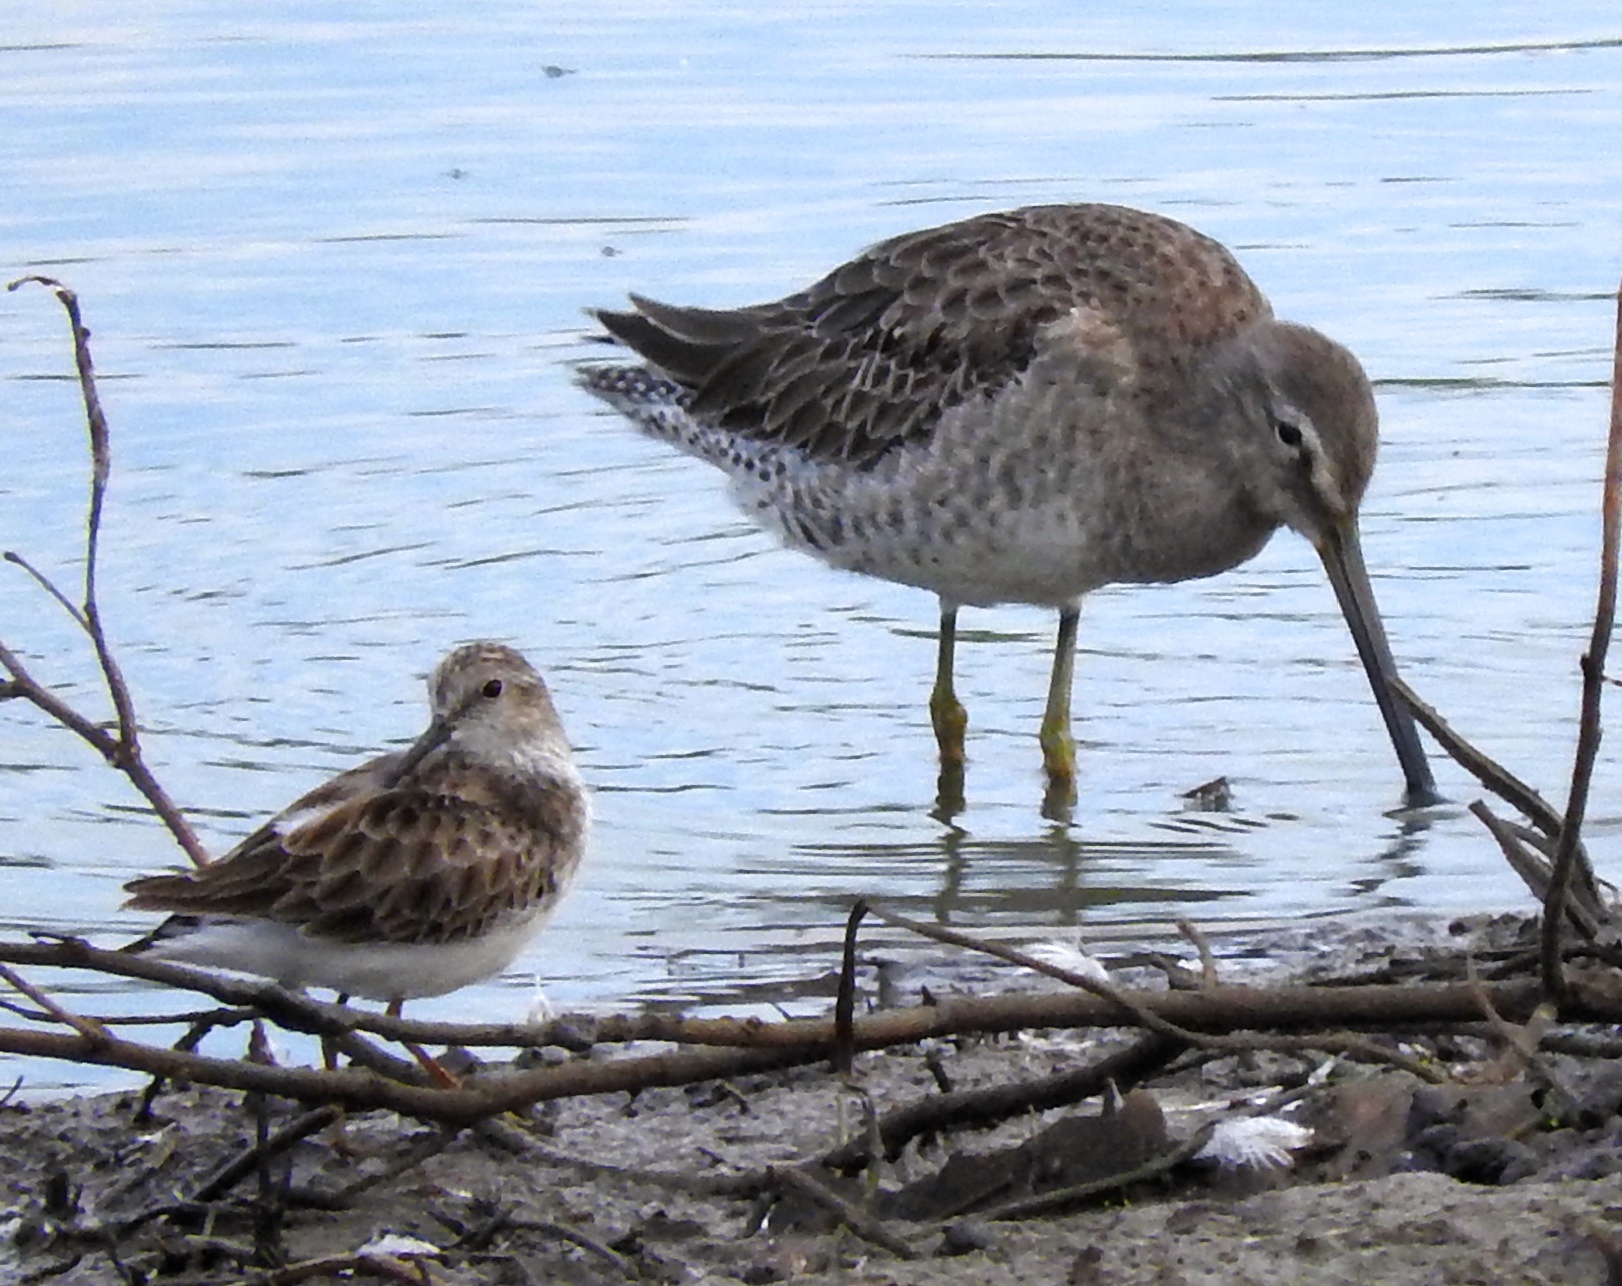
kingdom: Animalia
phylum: Chordata
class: Aves
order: Charadriiformes
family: Scolopacidae
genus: Calidris
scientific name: Calidris minutilla
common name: Least sandpiper
